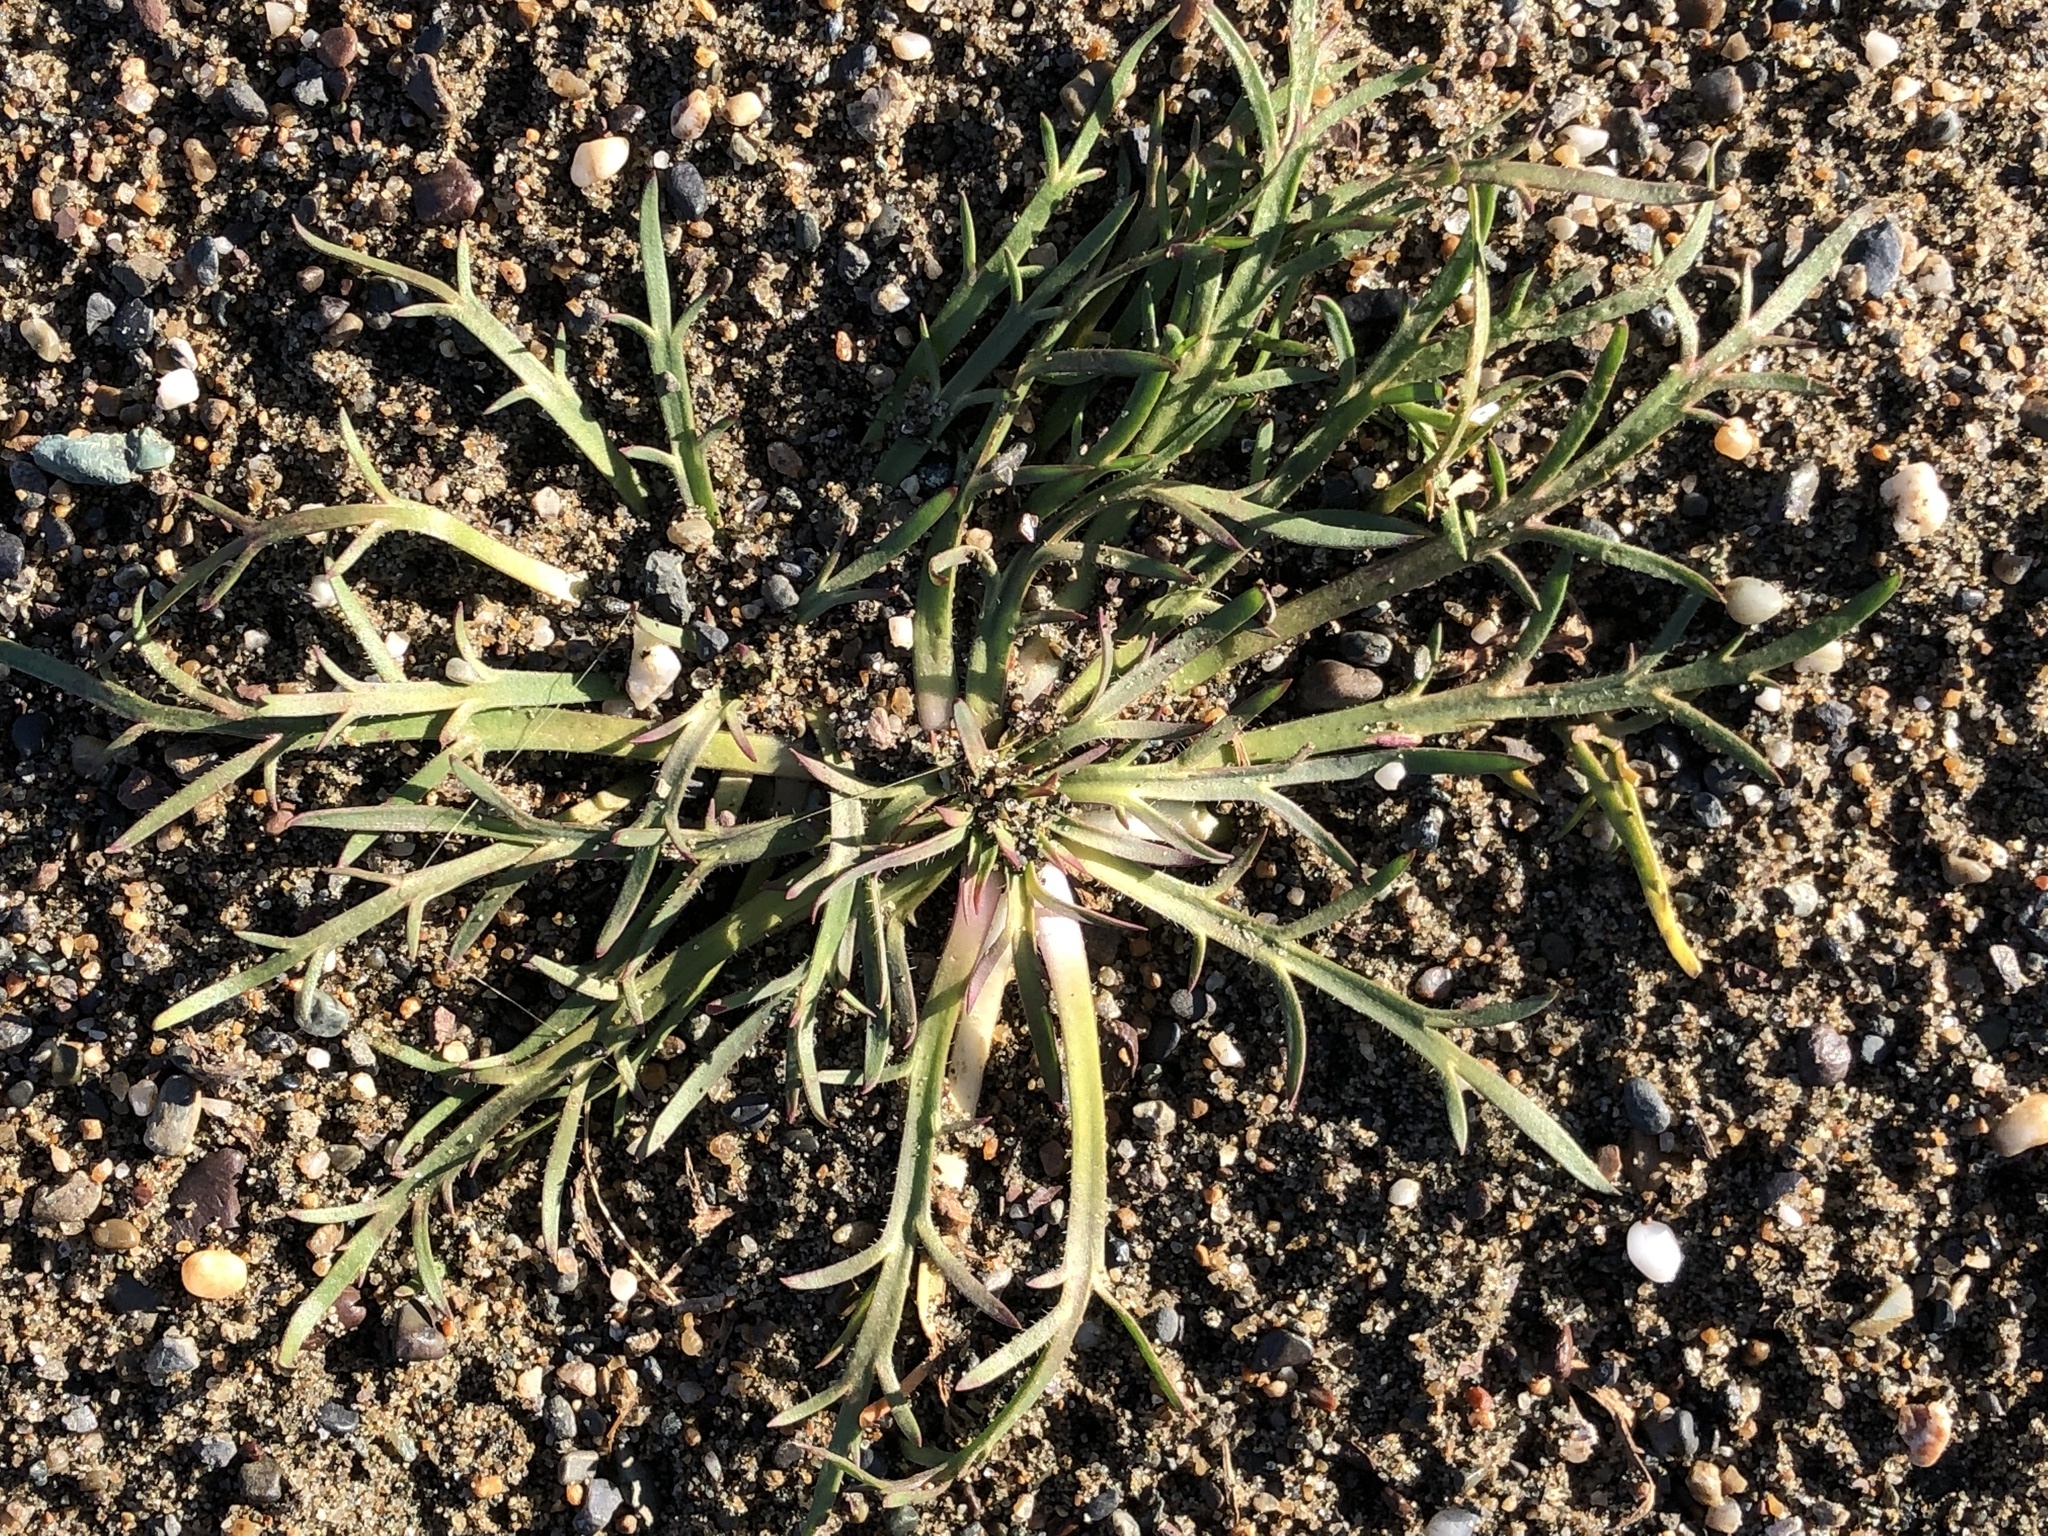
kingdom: Plantae
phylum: Tracheophyta
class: Magnoliopsida
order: Lamiales
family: Plantaginaceae
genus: Plantago
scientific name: Plantago coronopus
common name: Buck's-horn plantain
